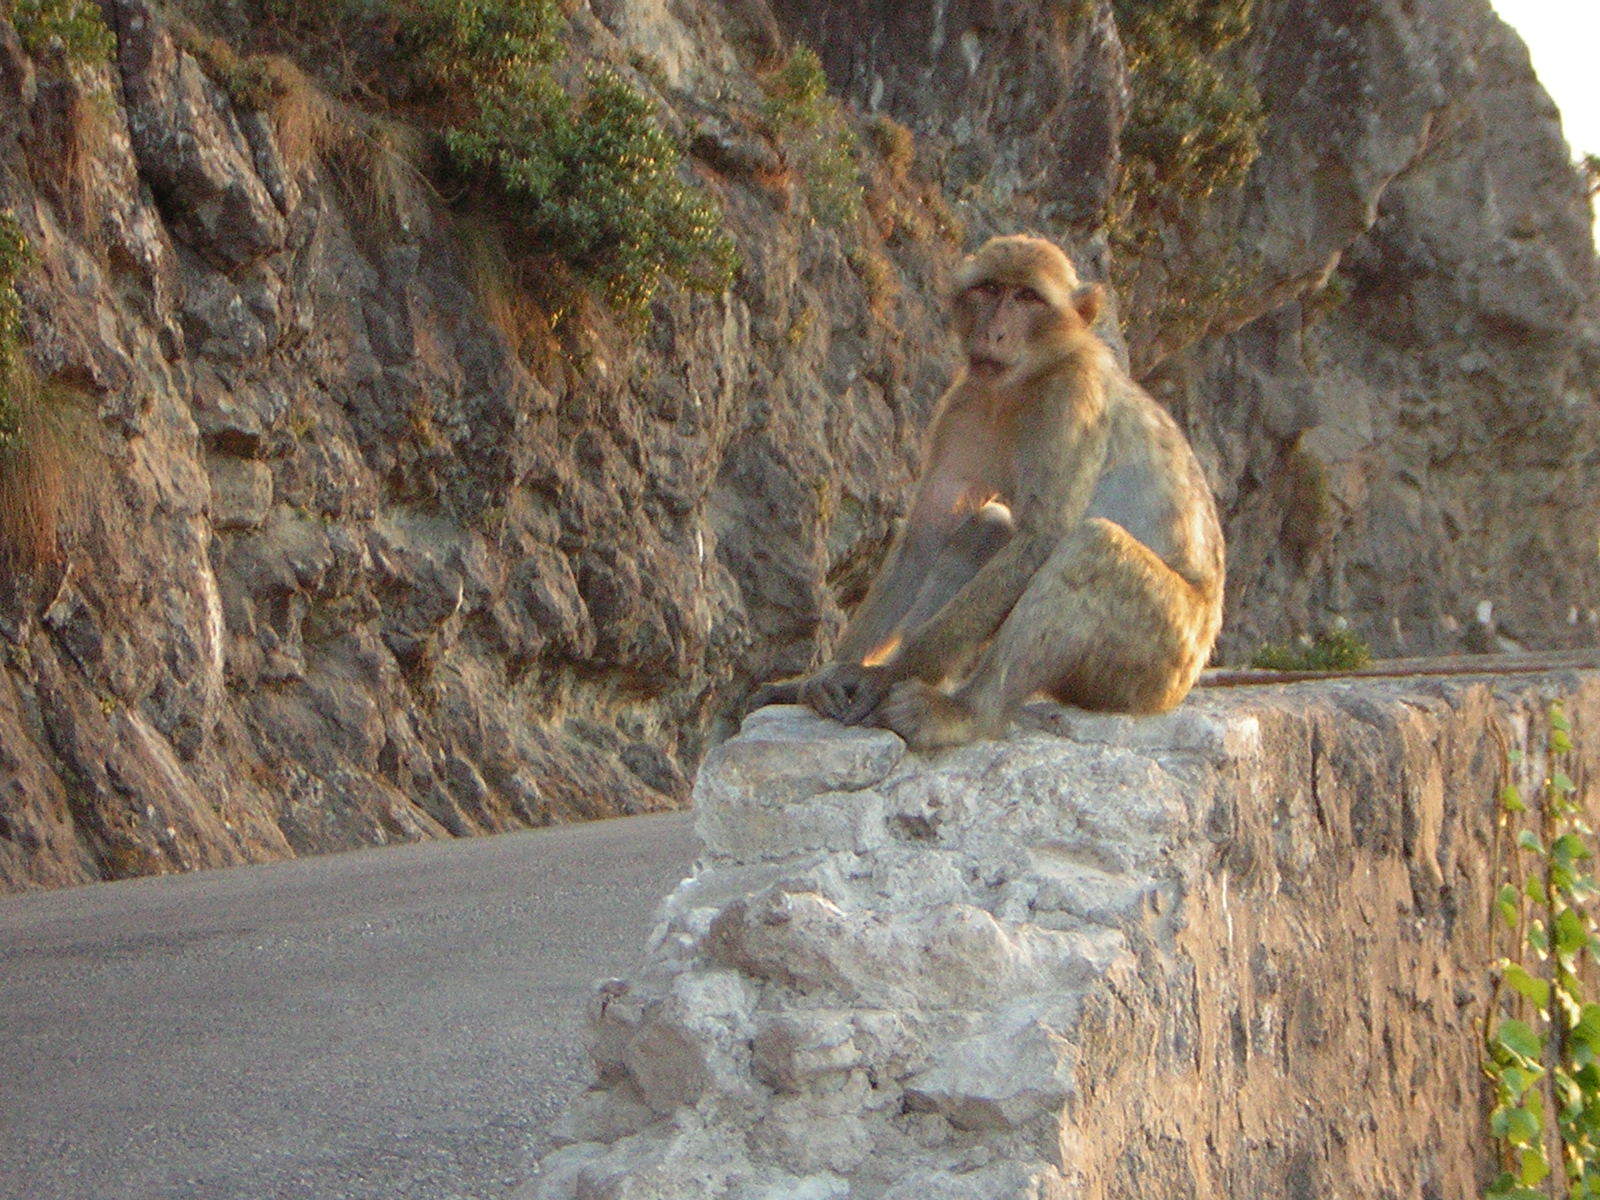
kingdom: Animalia
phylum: Chordata
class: Mammalia
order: Primates
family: Cercopithecidae
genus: Macaca
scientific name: Macaca sylvanus
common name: Barbary macaque
